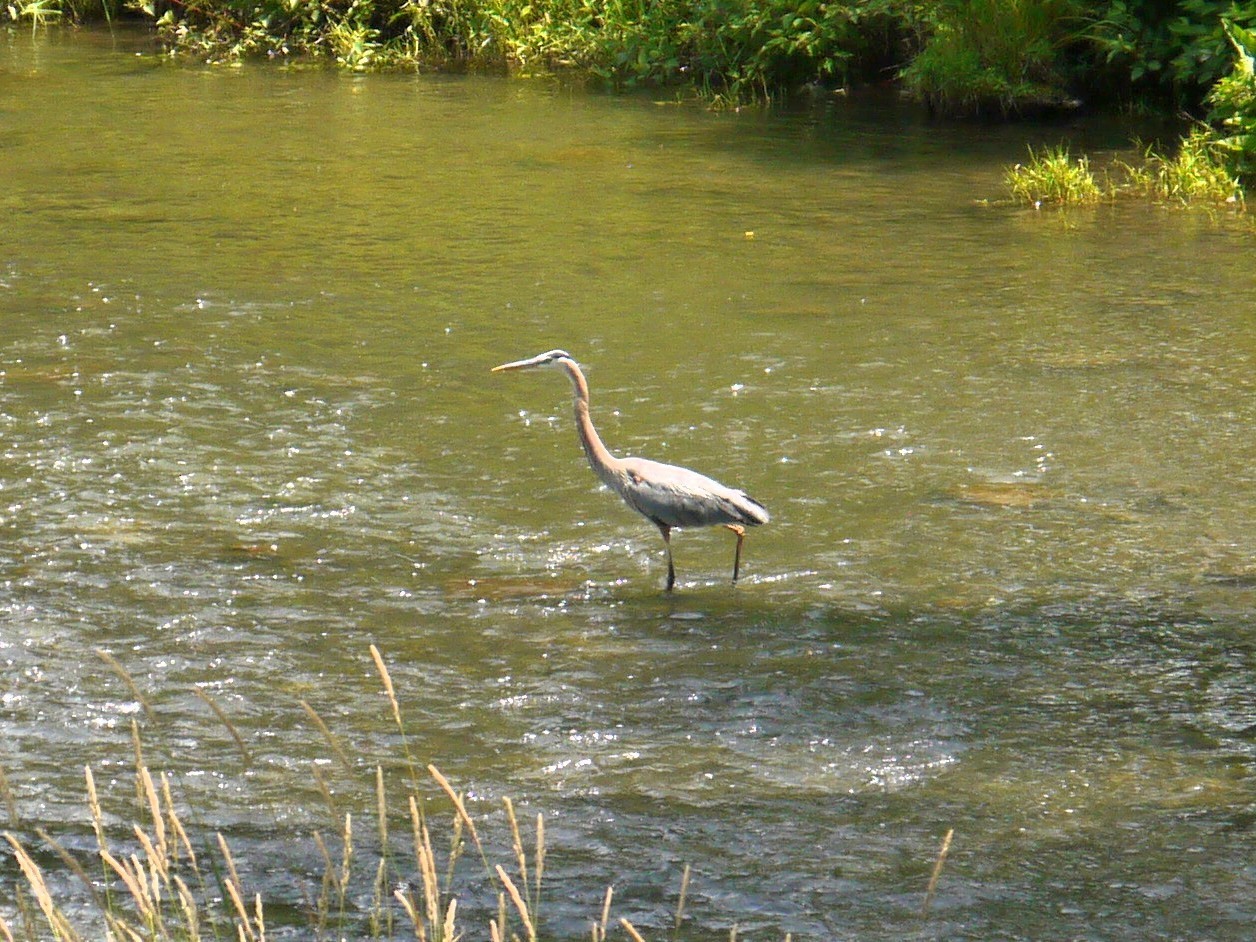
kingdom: Animalia
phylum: Chordata
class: Aves
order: Pelecaniformes
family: Ardeidae
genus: Ardea
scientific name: Ardea herodias
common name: Great blue heron
